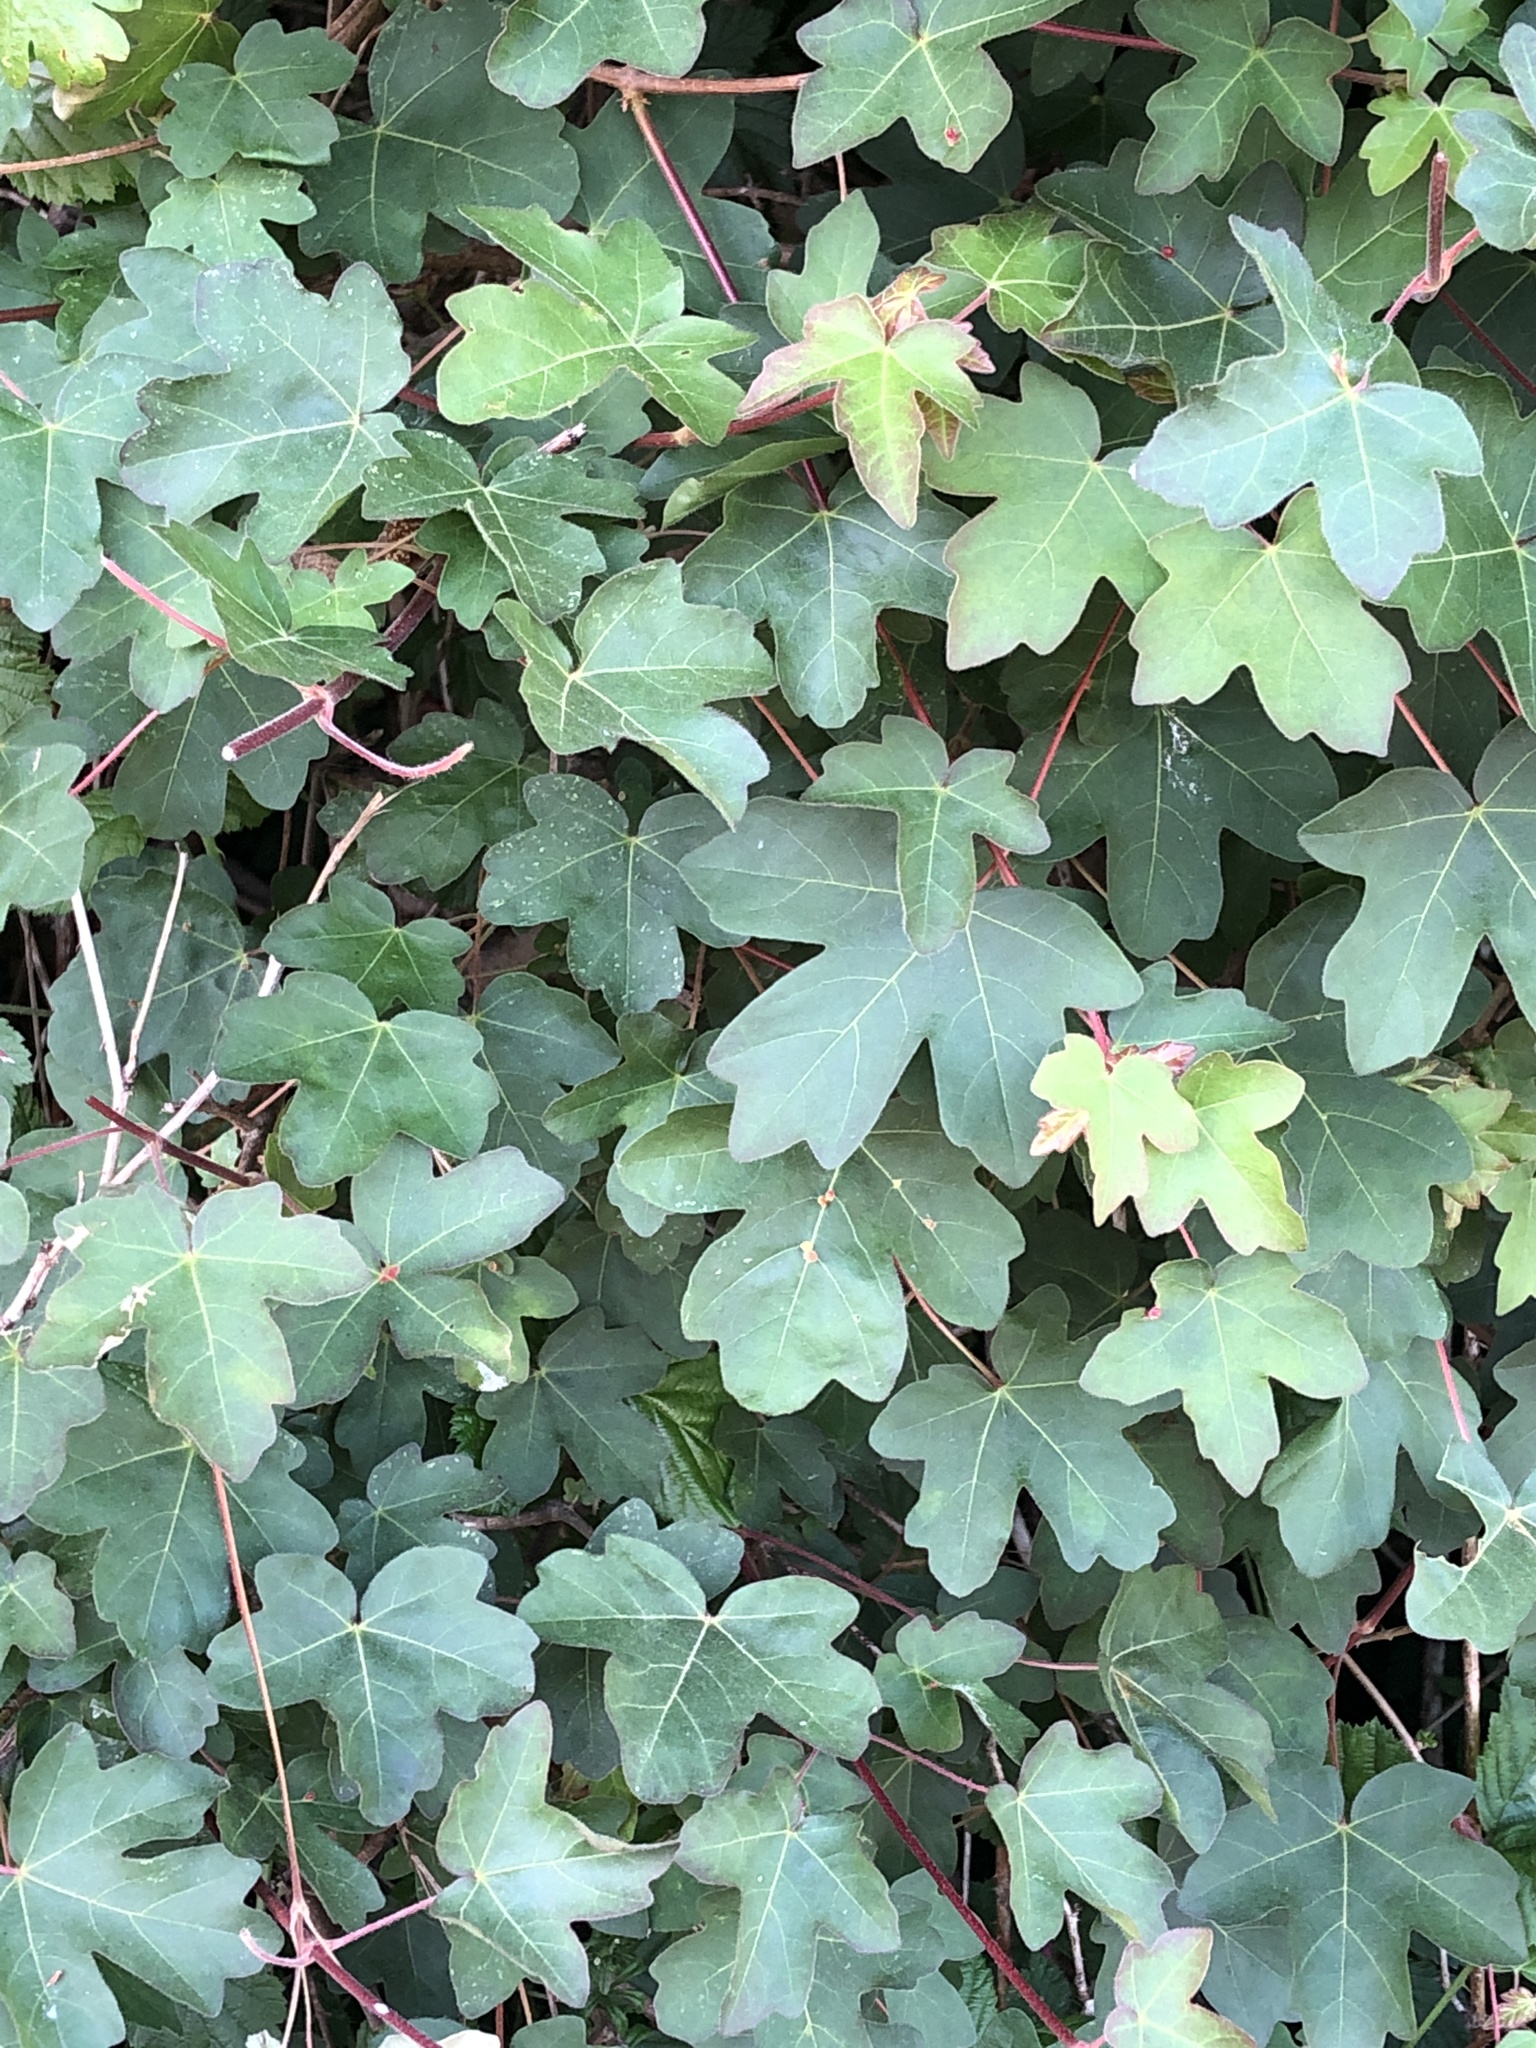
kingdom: Plantae
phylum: Tracheophyta
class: Magnoliopsida
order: Sapindales
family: Sapindaceae
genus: Acer
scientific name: Acer campestre
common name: Field maple
